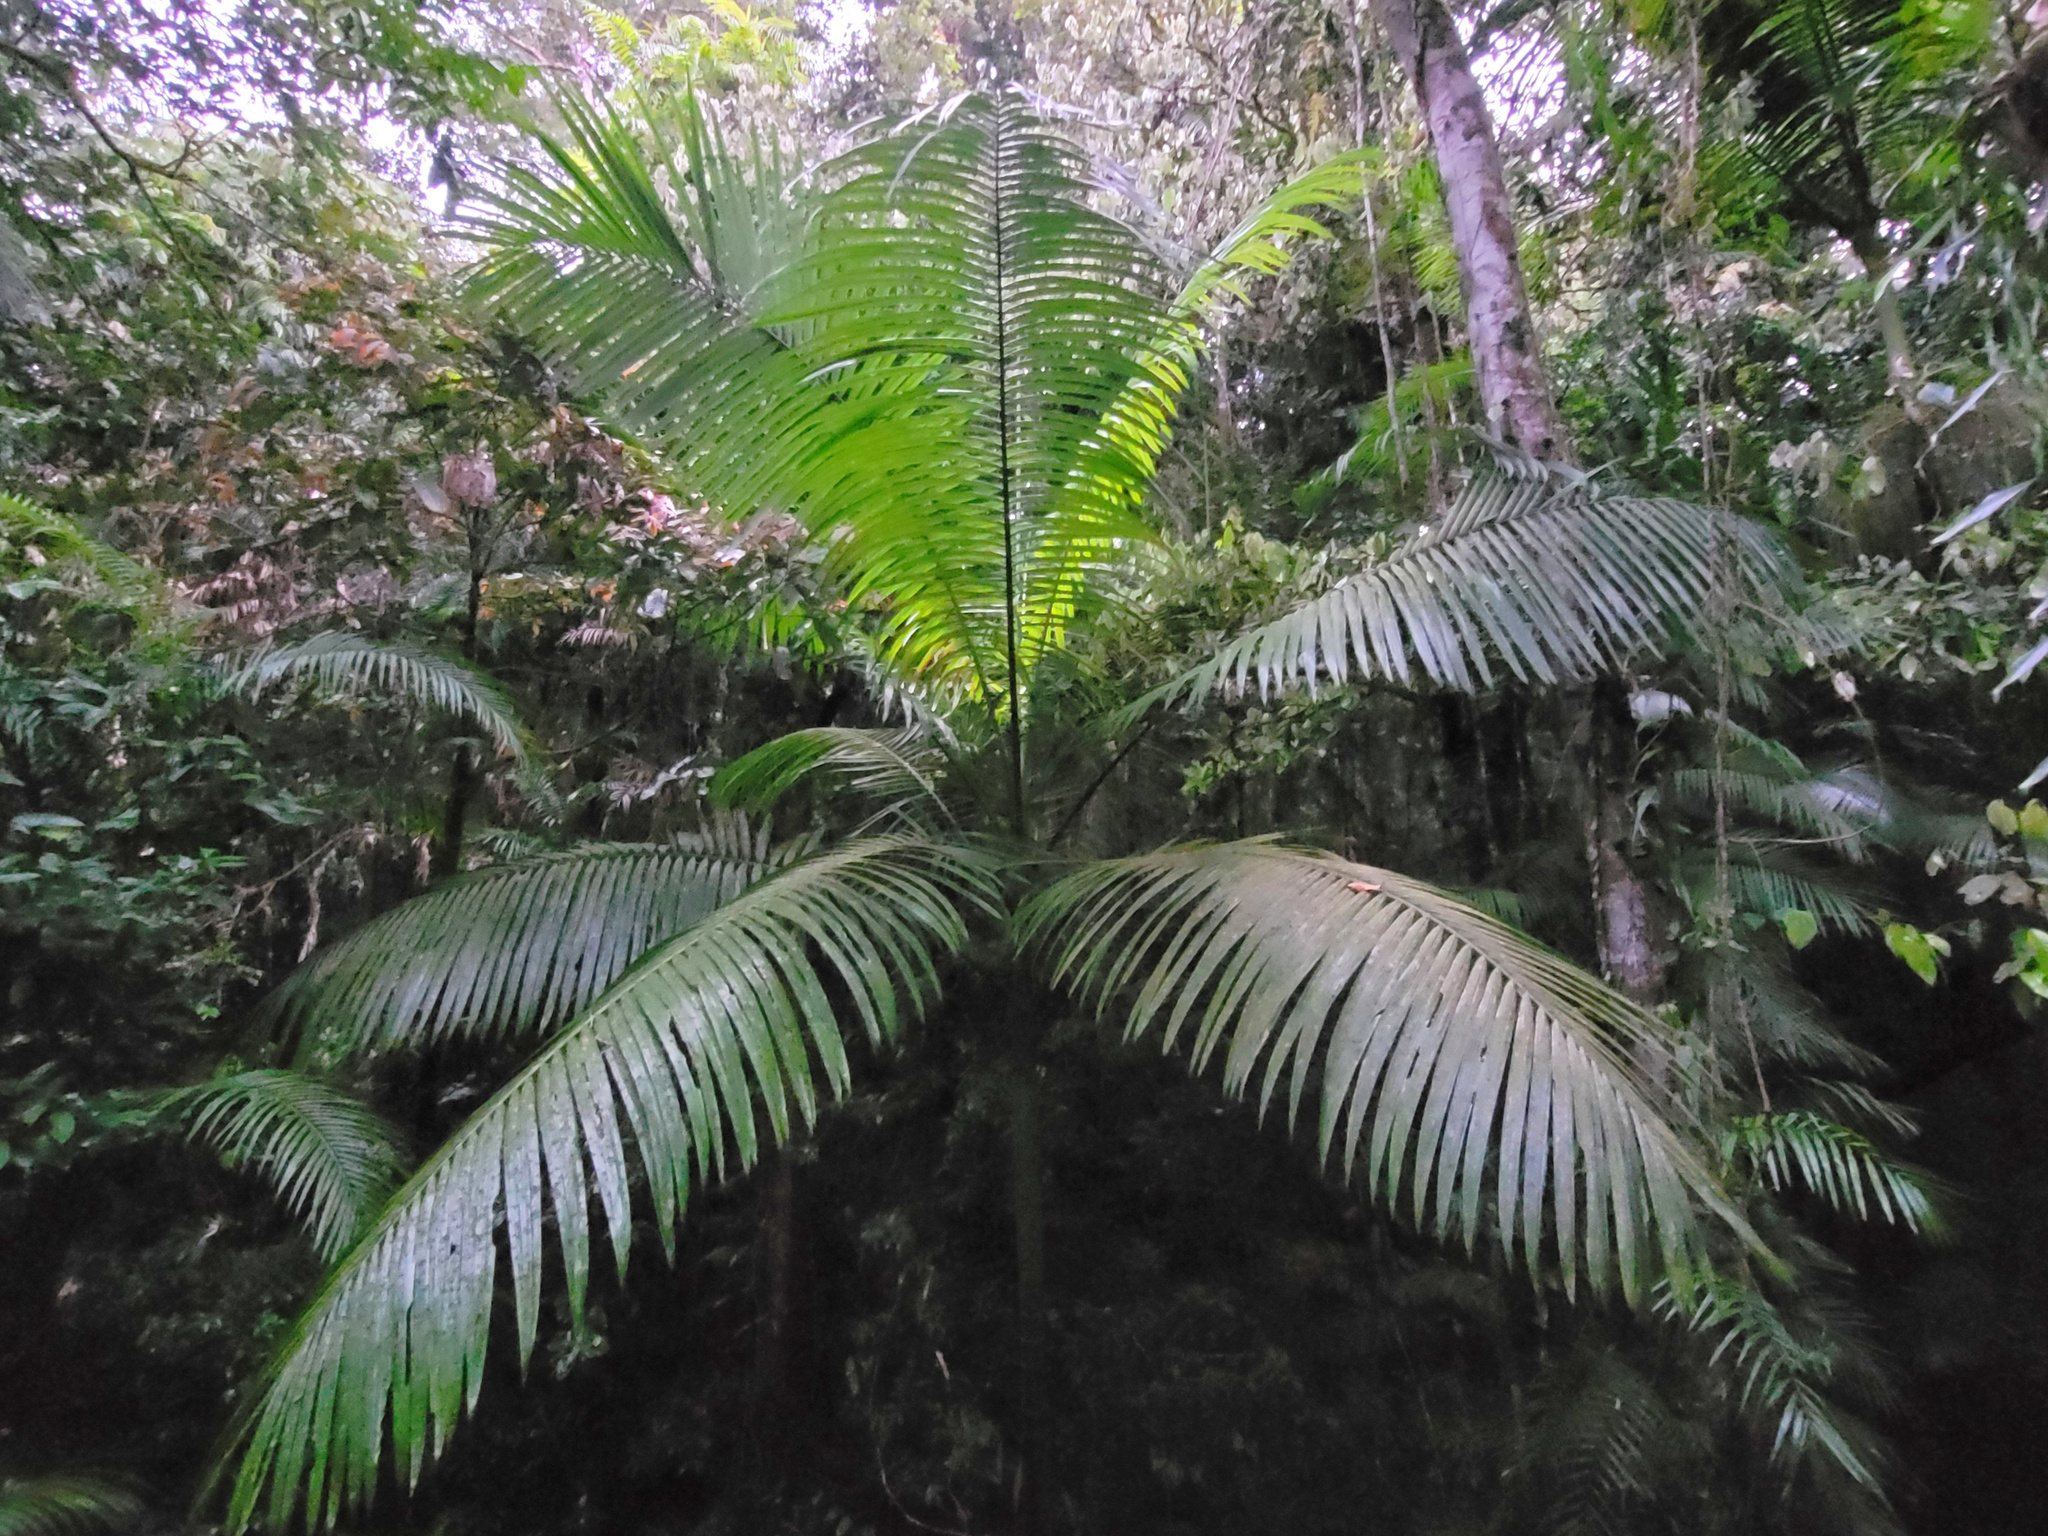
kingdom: Plantae
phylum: Tracheophyta
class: Liliopsida
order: Arecales
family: Arecaceae
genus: Archontophoenix
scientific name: Archontophoenix alexandrae
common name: Alexandra palm
